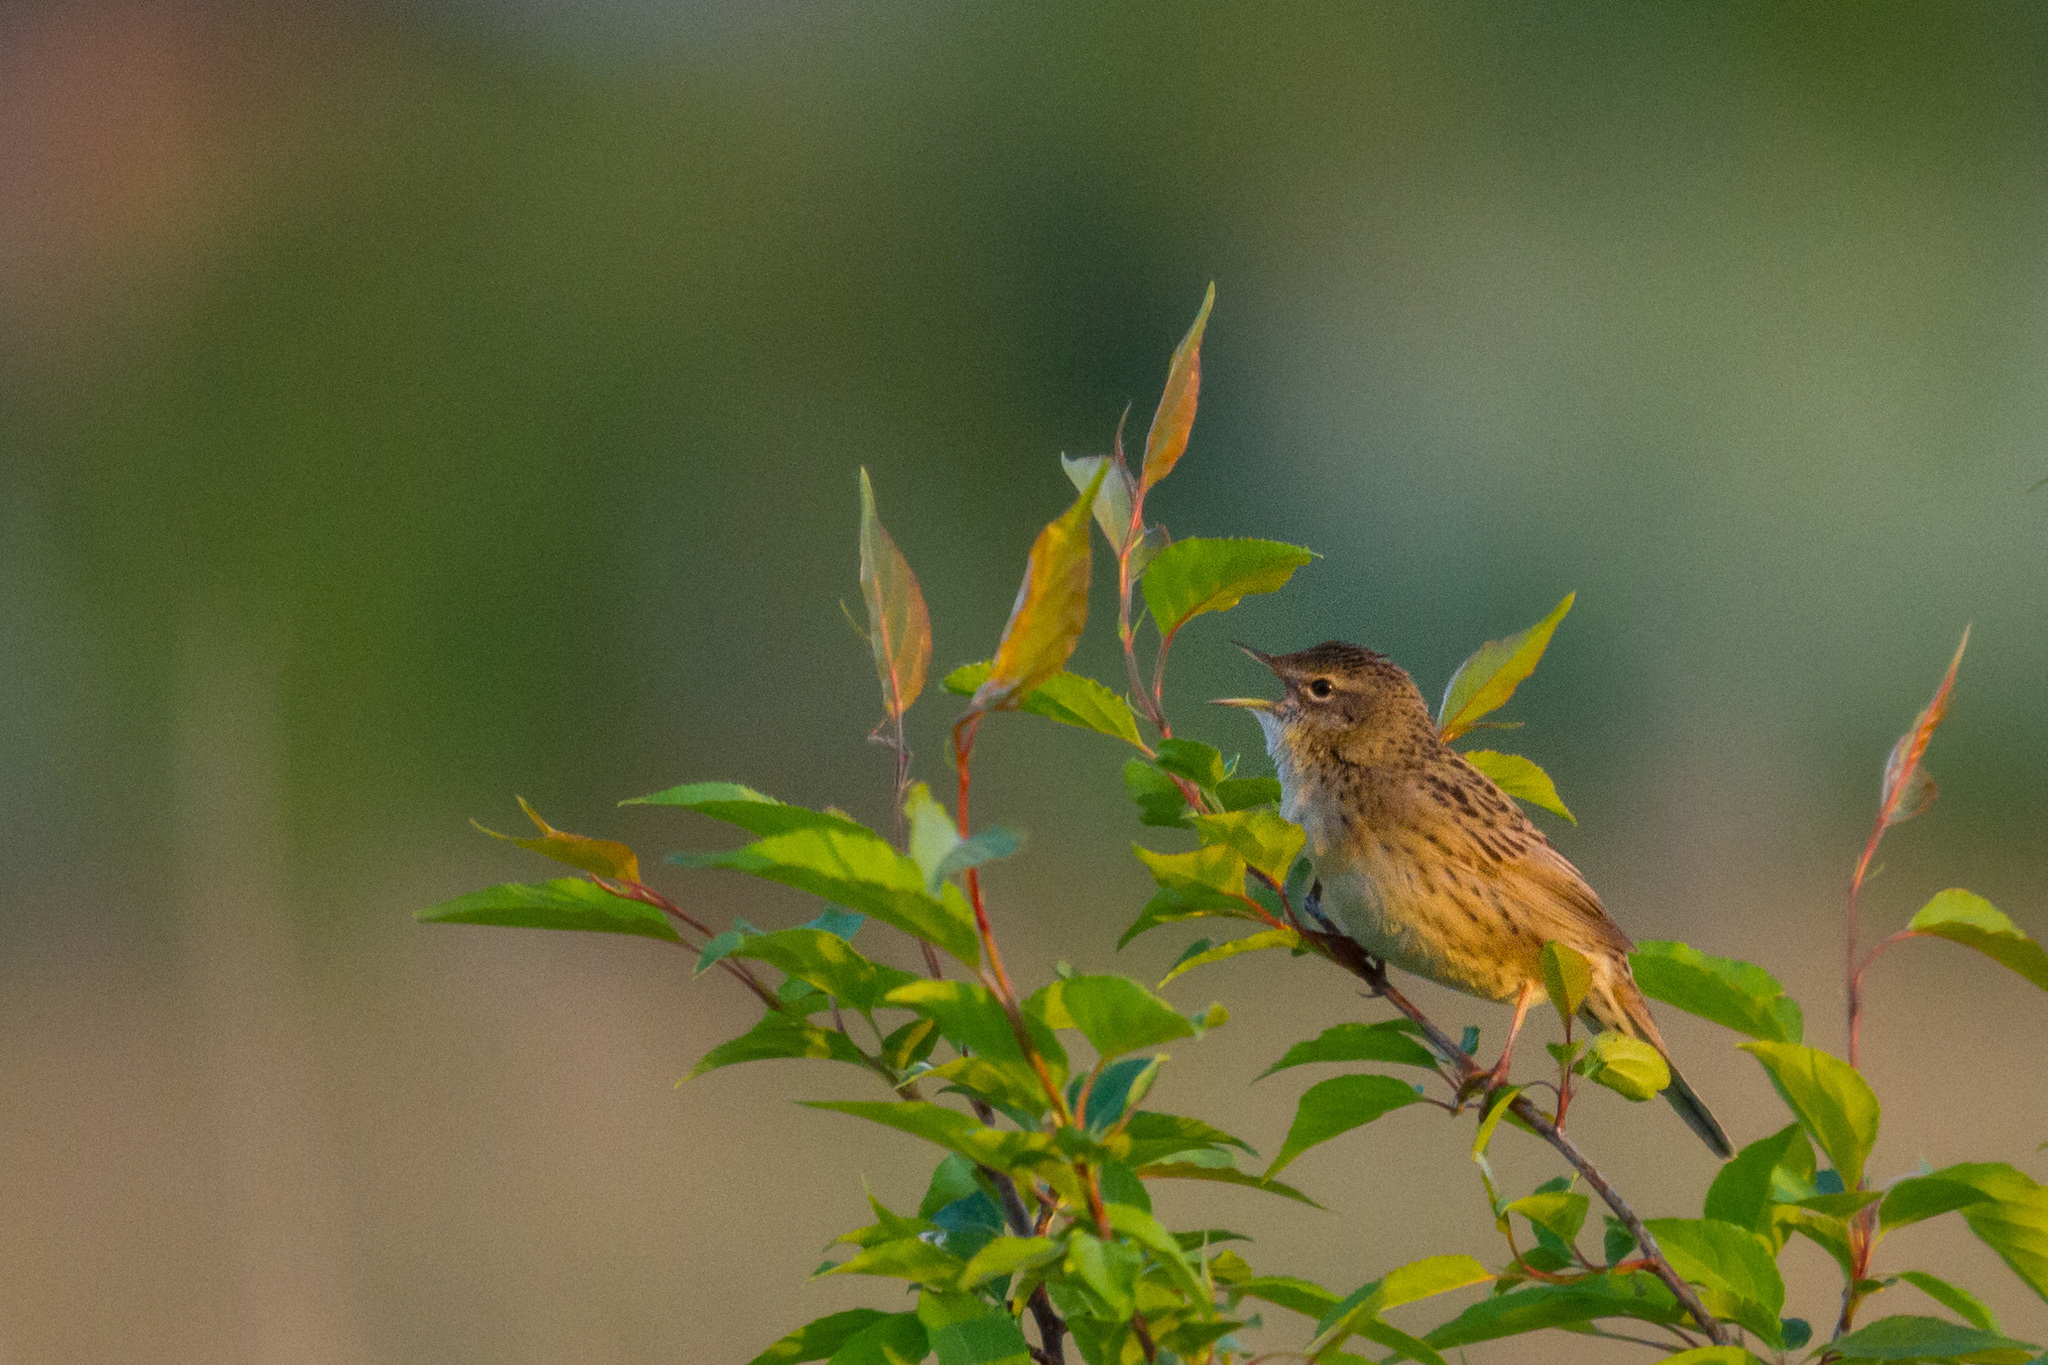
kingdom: Animalia
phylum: Chordata
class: Aves
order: Passeriformes
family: Locustellidae
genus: Locustella
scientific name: Locustella naevia
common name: Common grasshopper warbler
